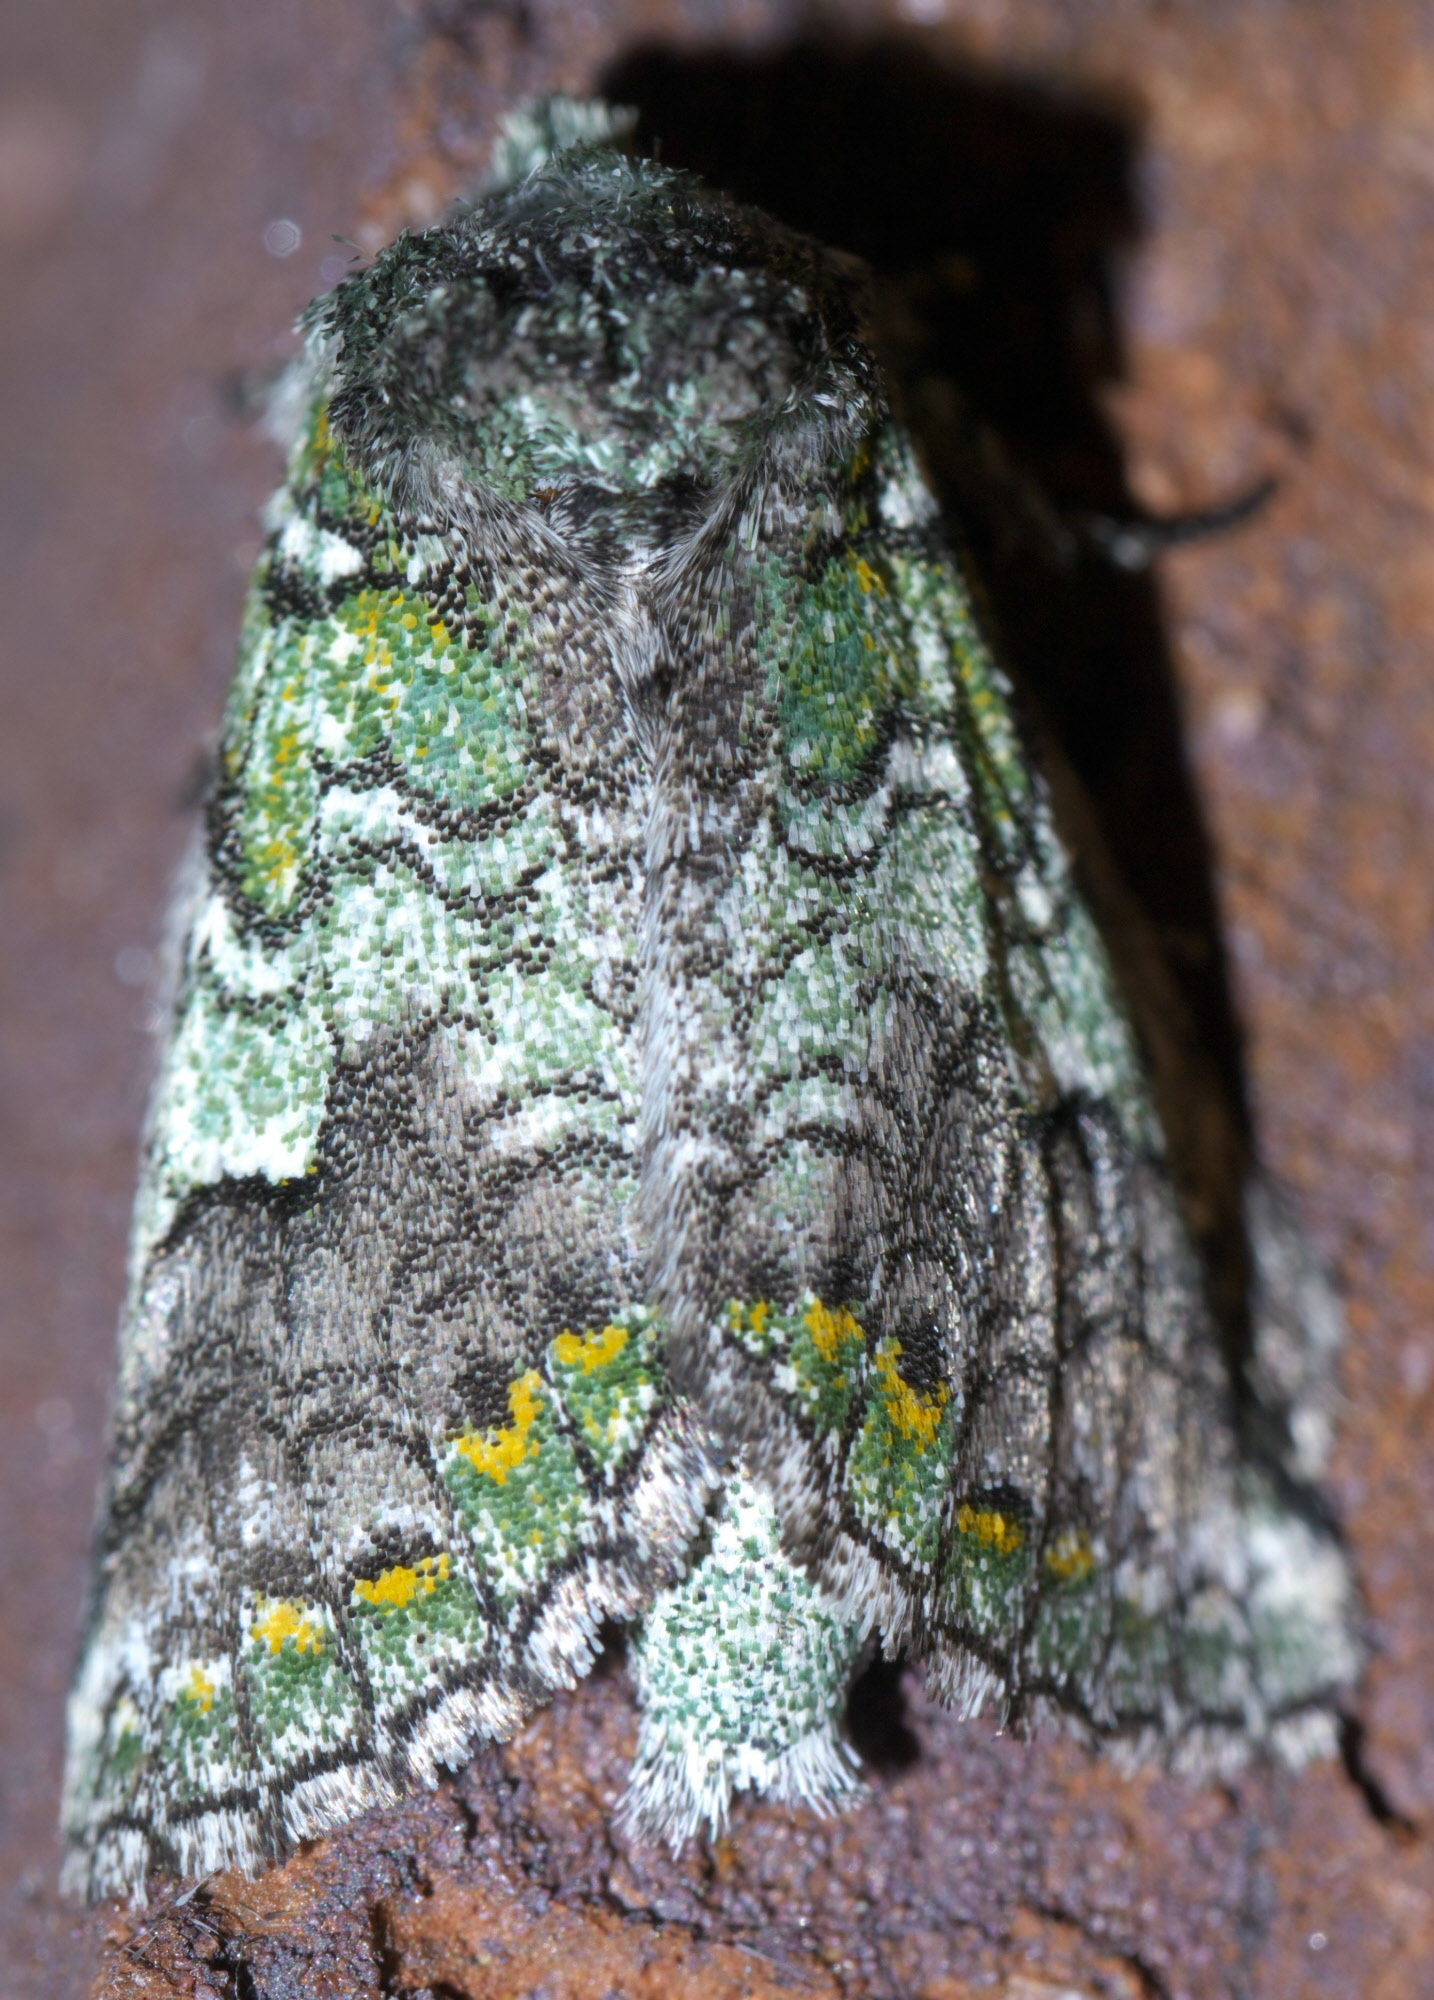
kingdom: Animalia
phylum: Arthropoda
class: Insecta
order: Lepidoptera
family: Notodontidae
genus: Litodonta
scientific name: Litodonta hydromeli
